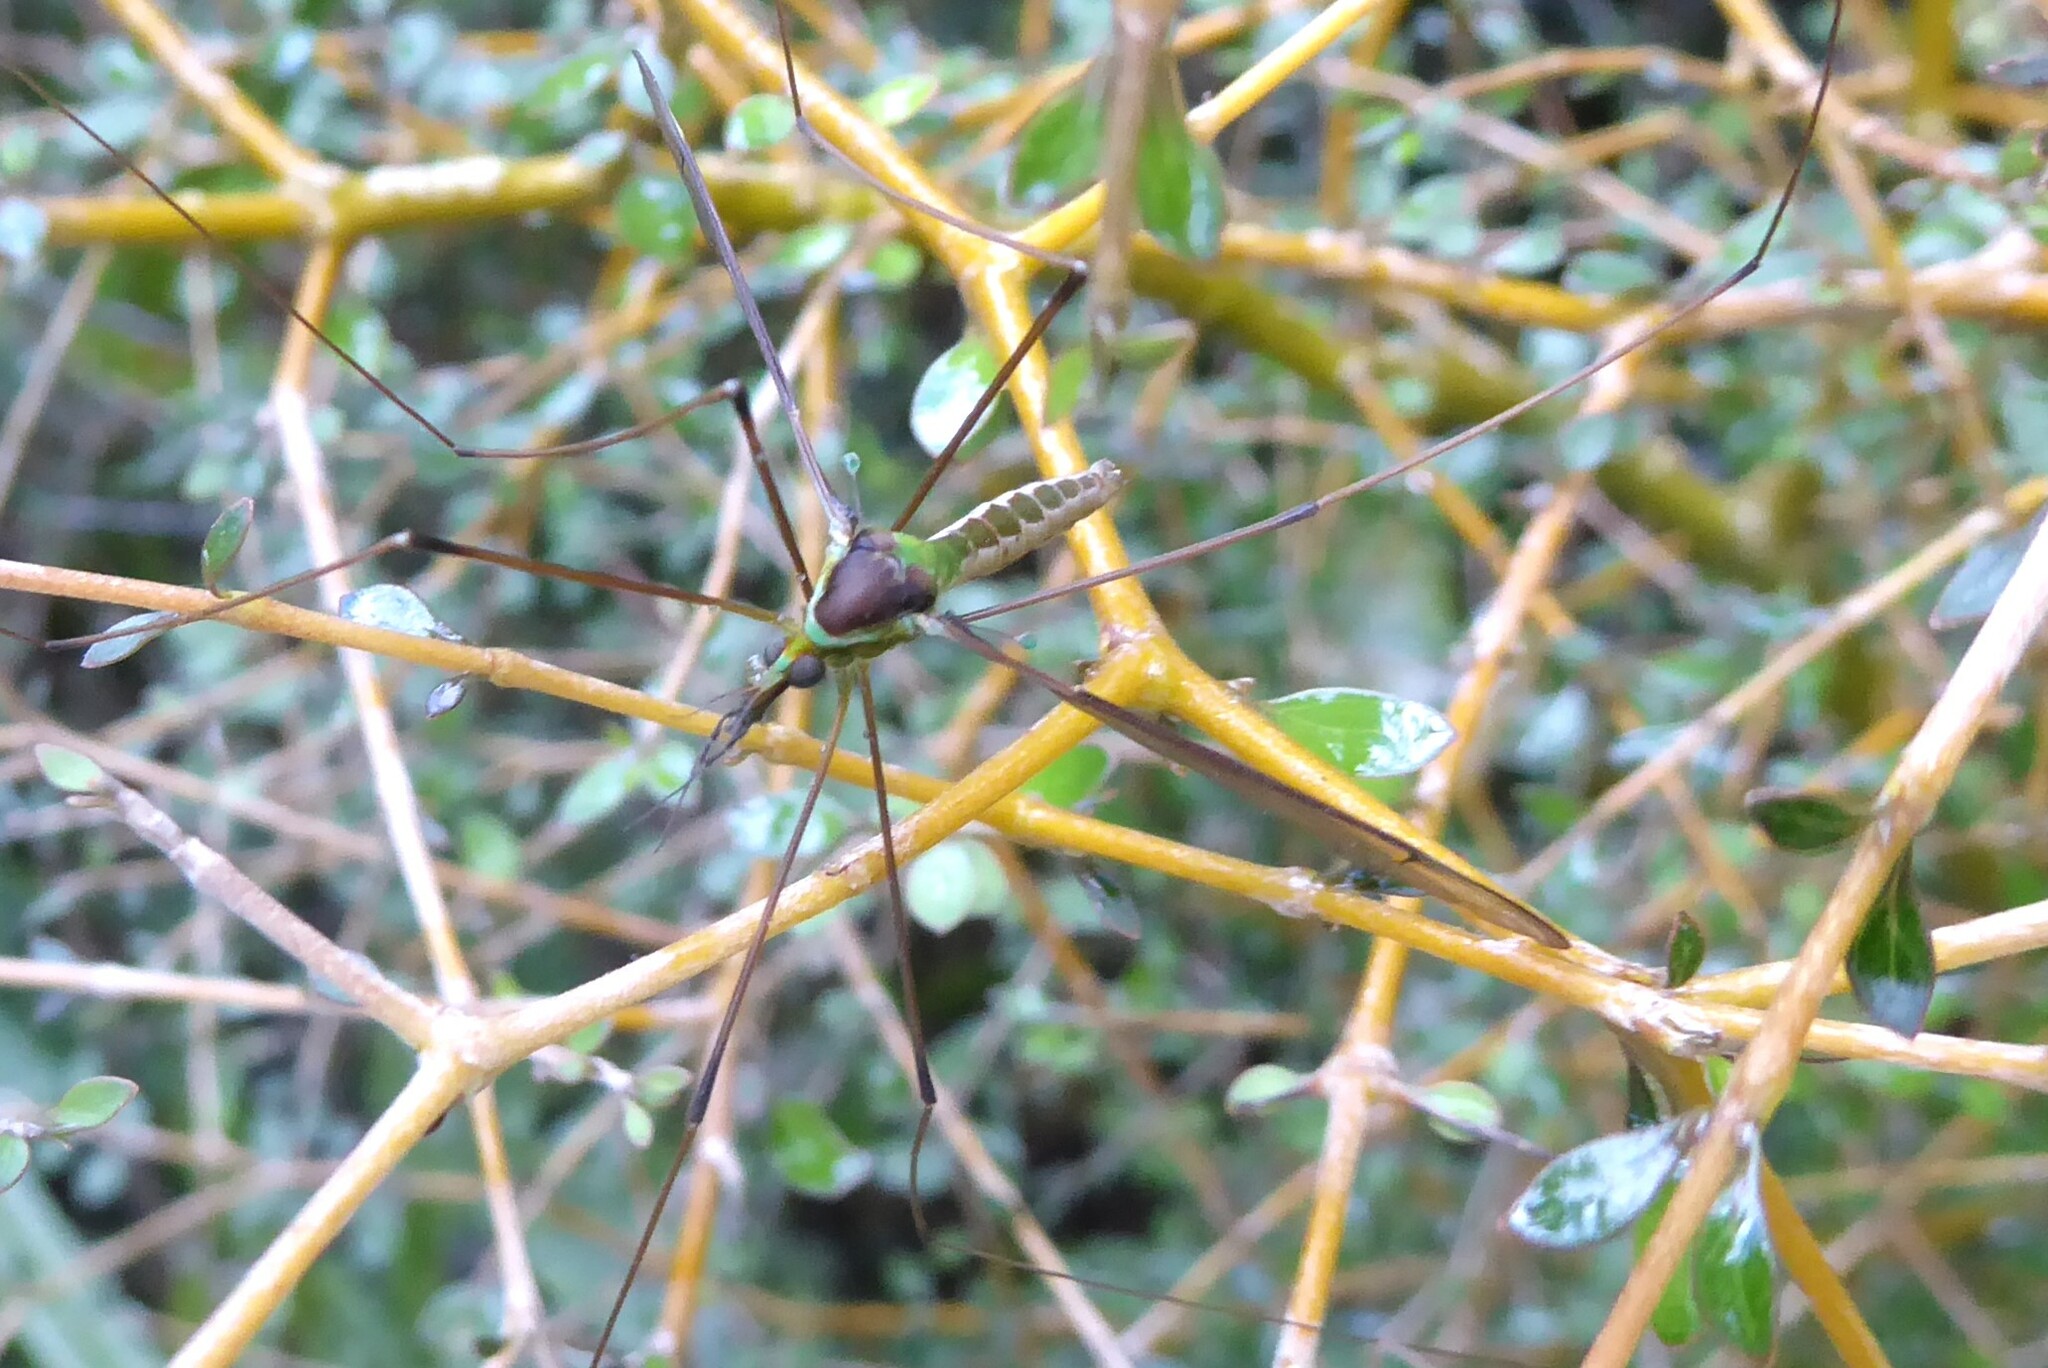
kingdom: Animalia
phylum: Arthropoda
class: Insecta
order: Diptera
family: Tipulidae
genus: Leptotarsus
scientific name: Leptotarsus albistigma
